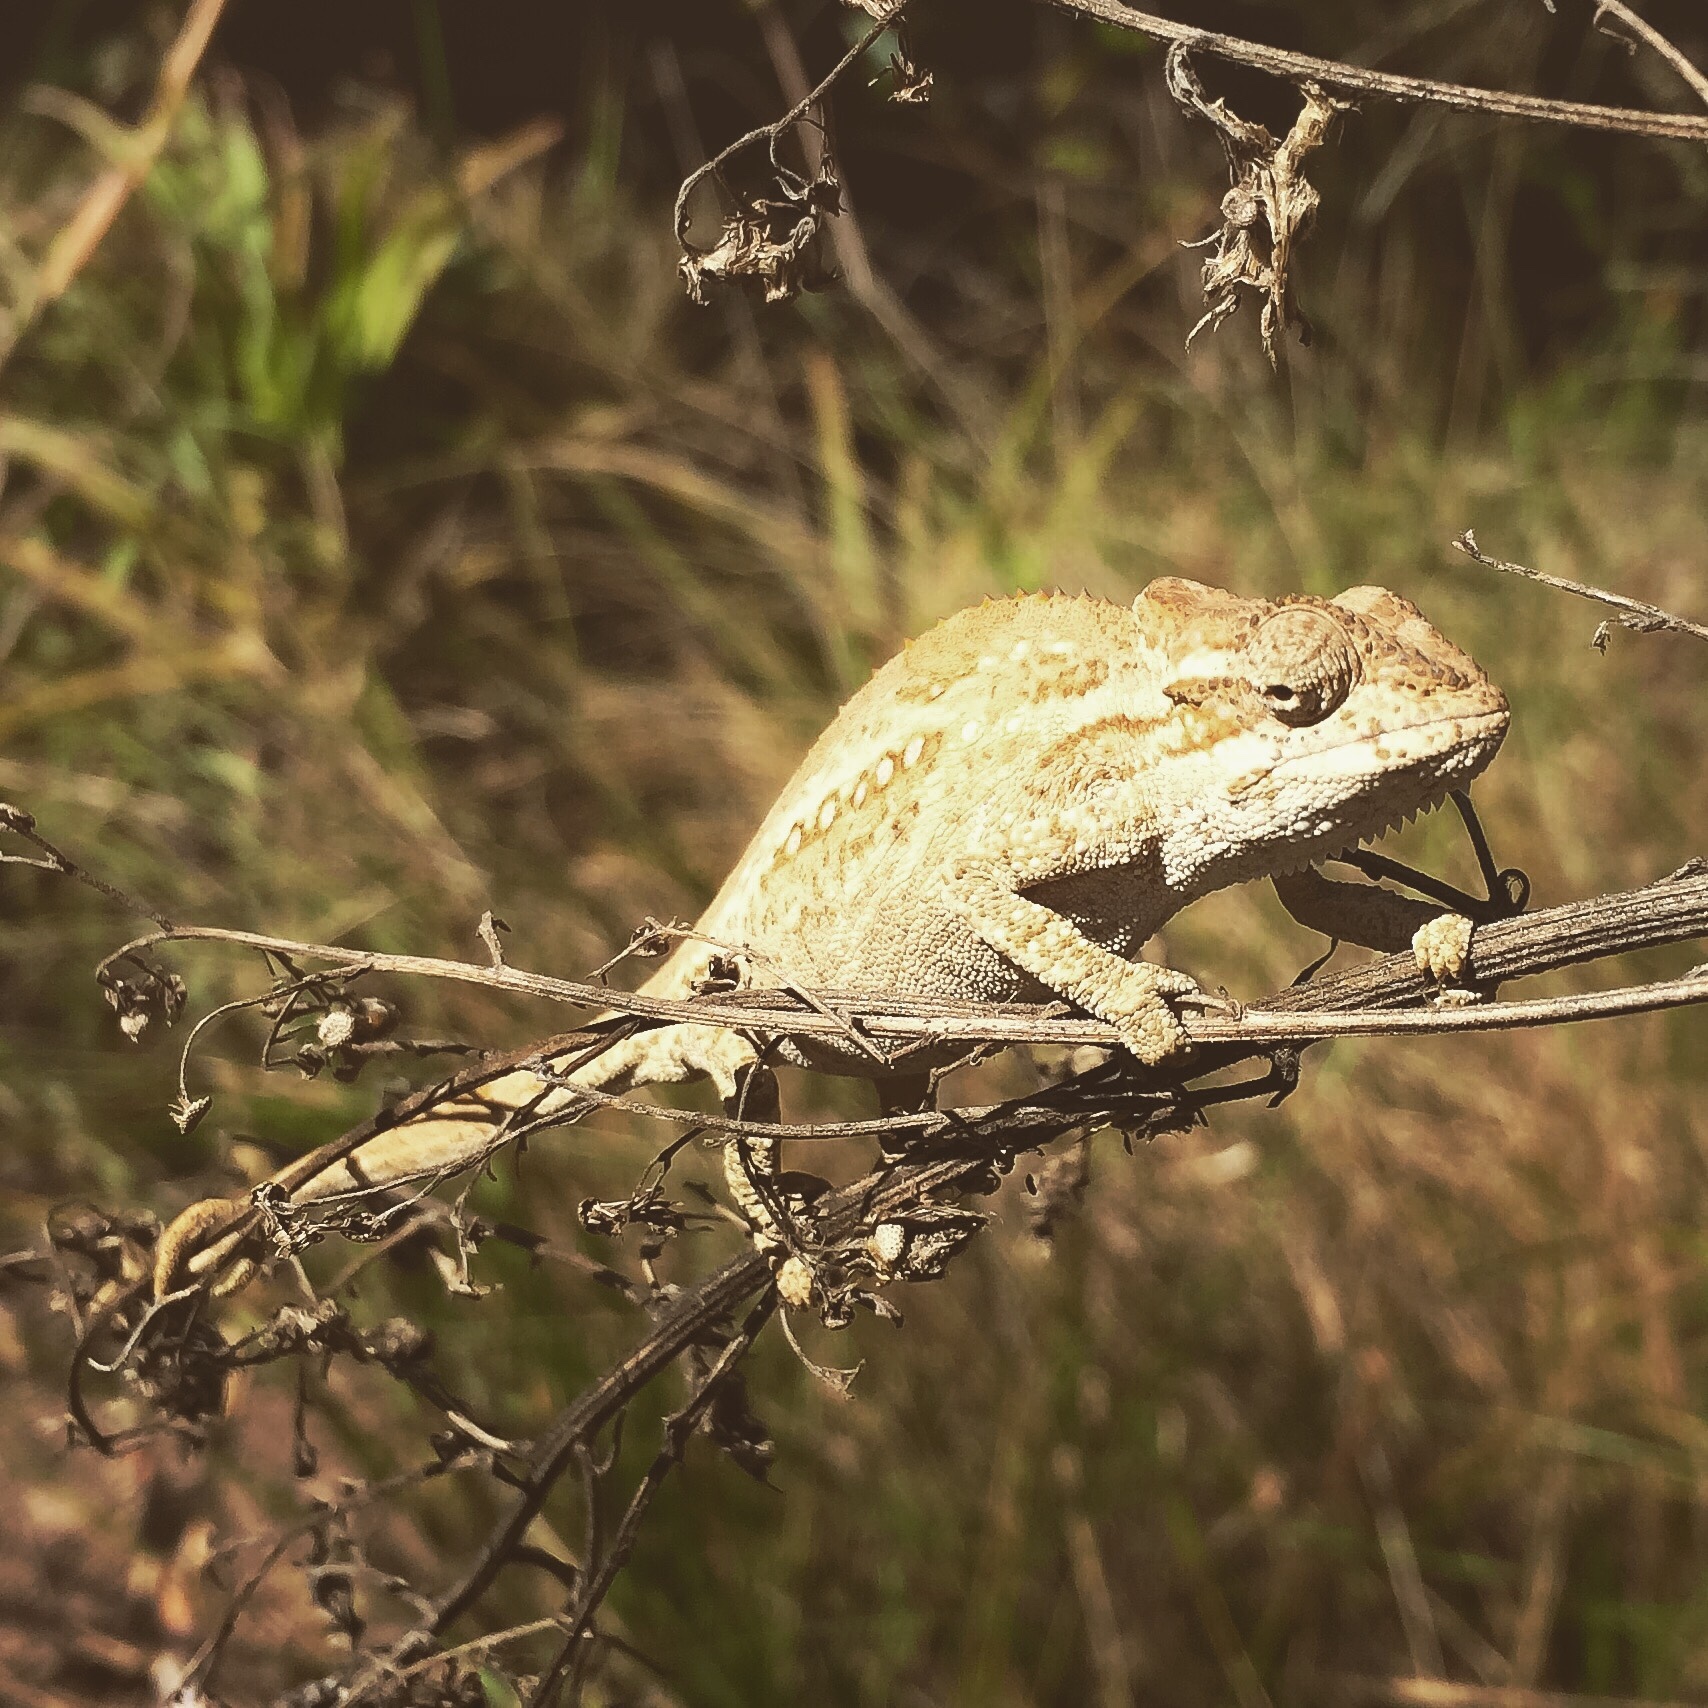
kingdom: Animalia
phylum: Chordata
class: Squamata
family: Chamaeleonidae
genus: Bradypodion
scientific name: Bradypodion melanocephalum
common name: Black-headed dwarf chameleon
